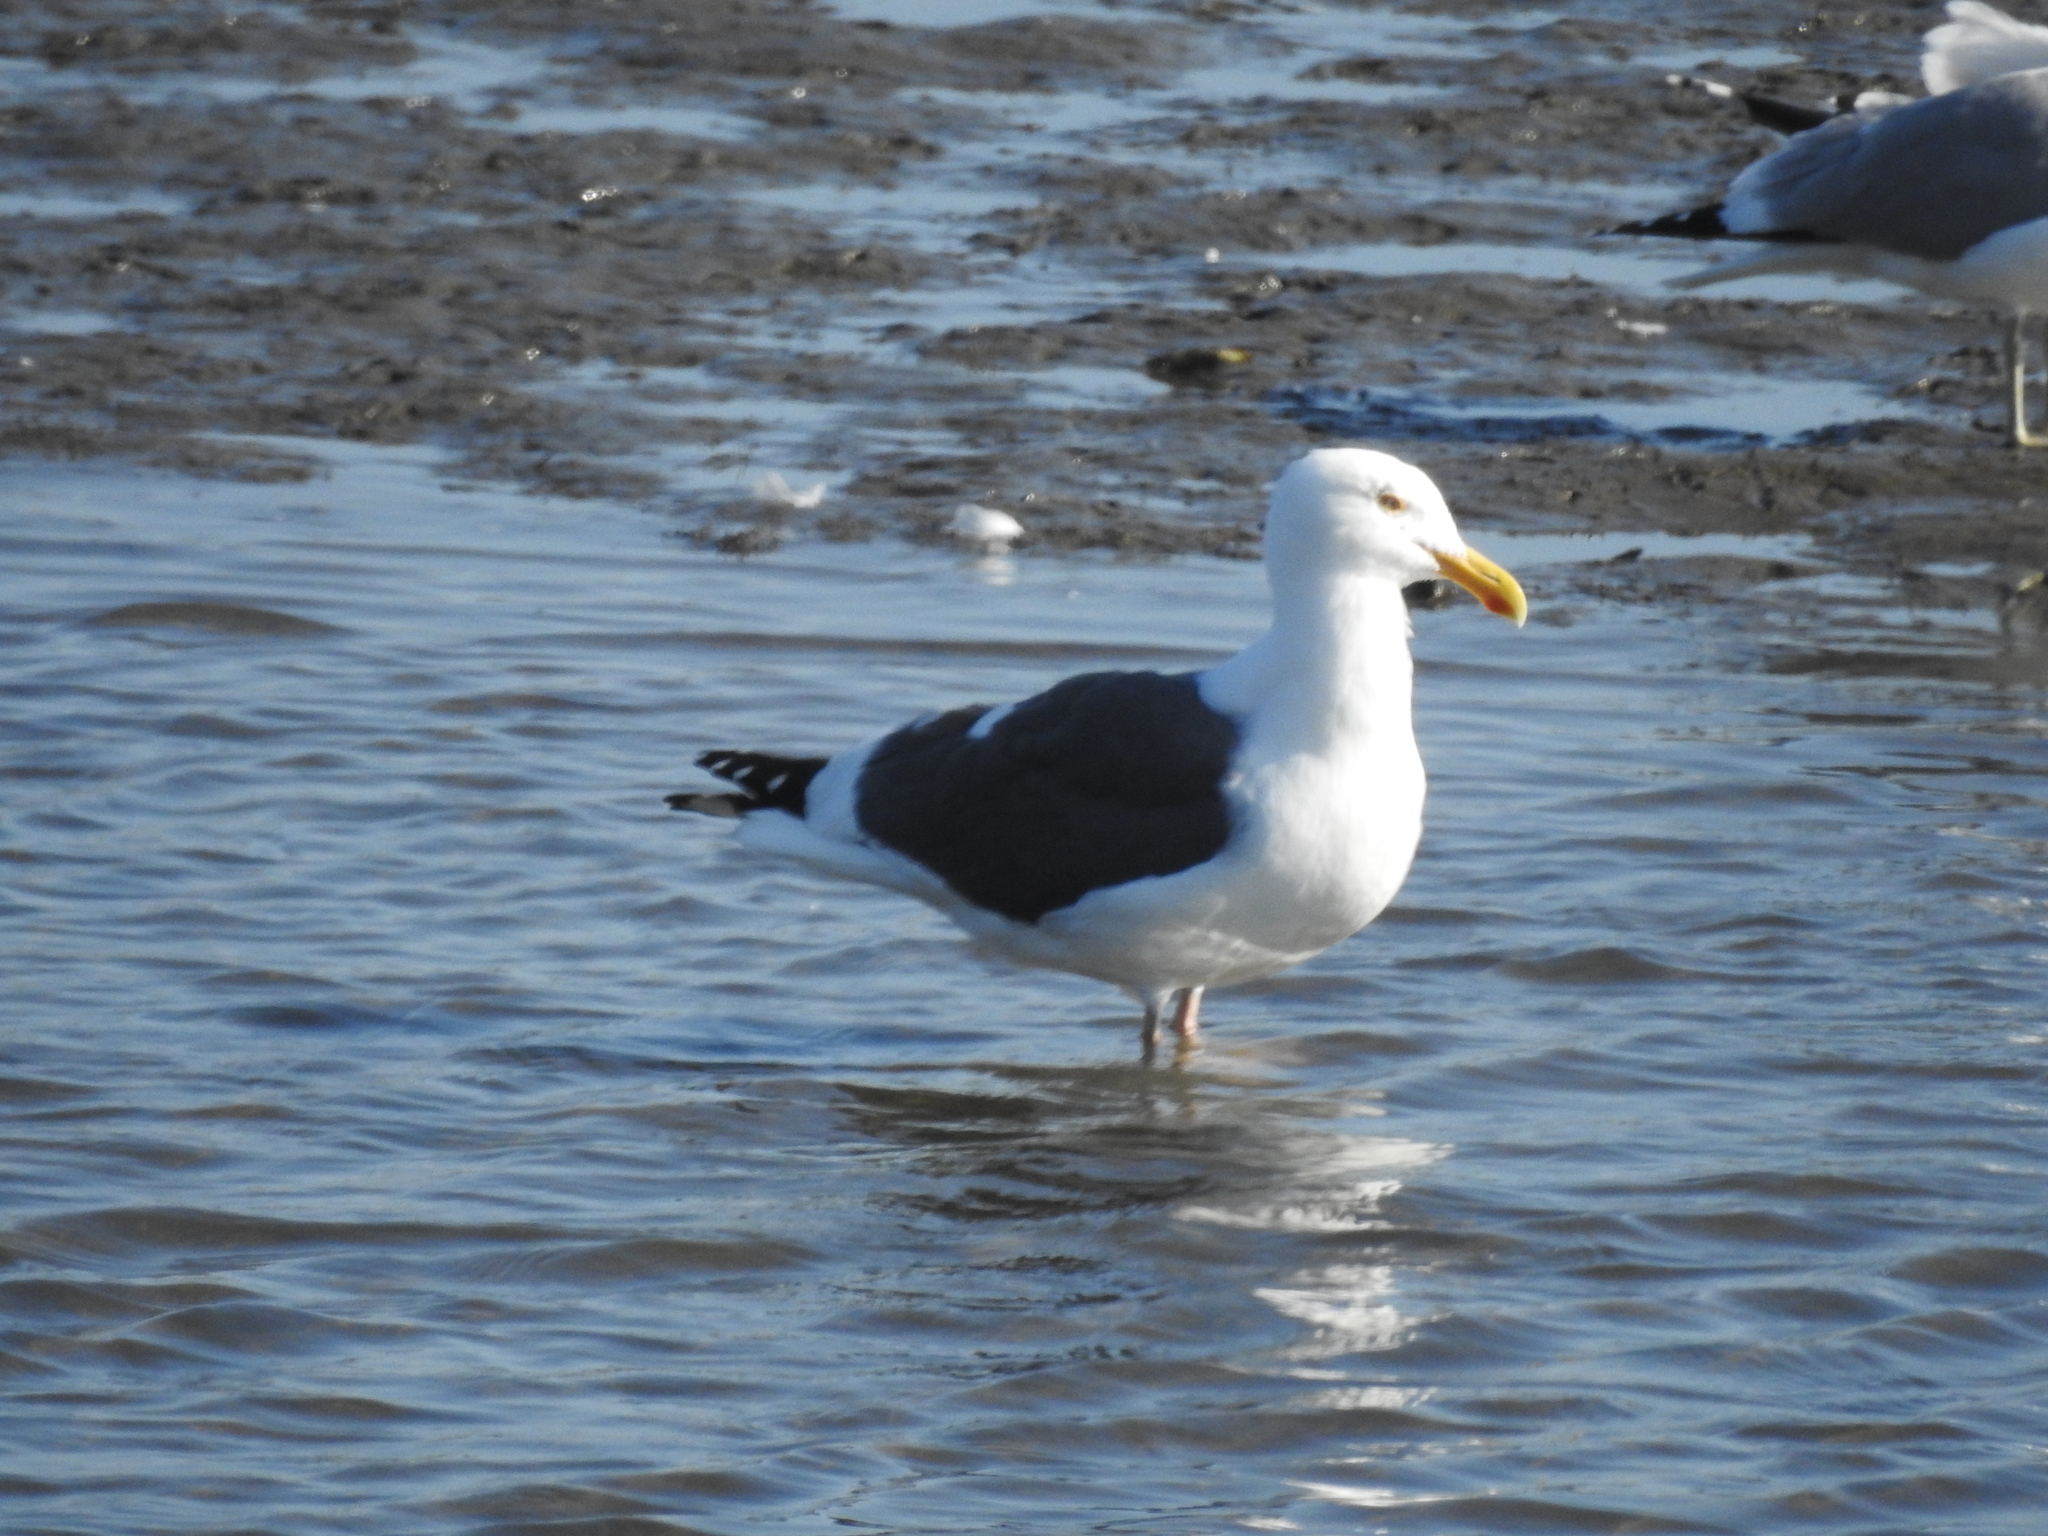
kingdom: Animalia
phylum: Chordata
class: Aves
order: Charadriiformes
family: Laridae
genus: Larus
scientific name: Larus occidentalis
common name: Western gull
